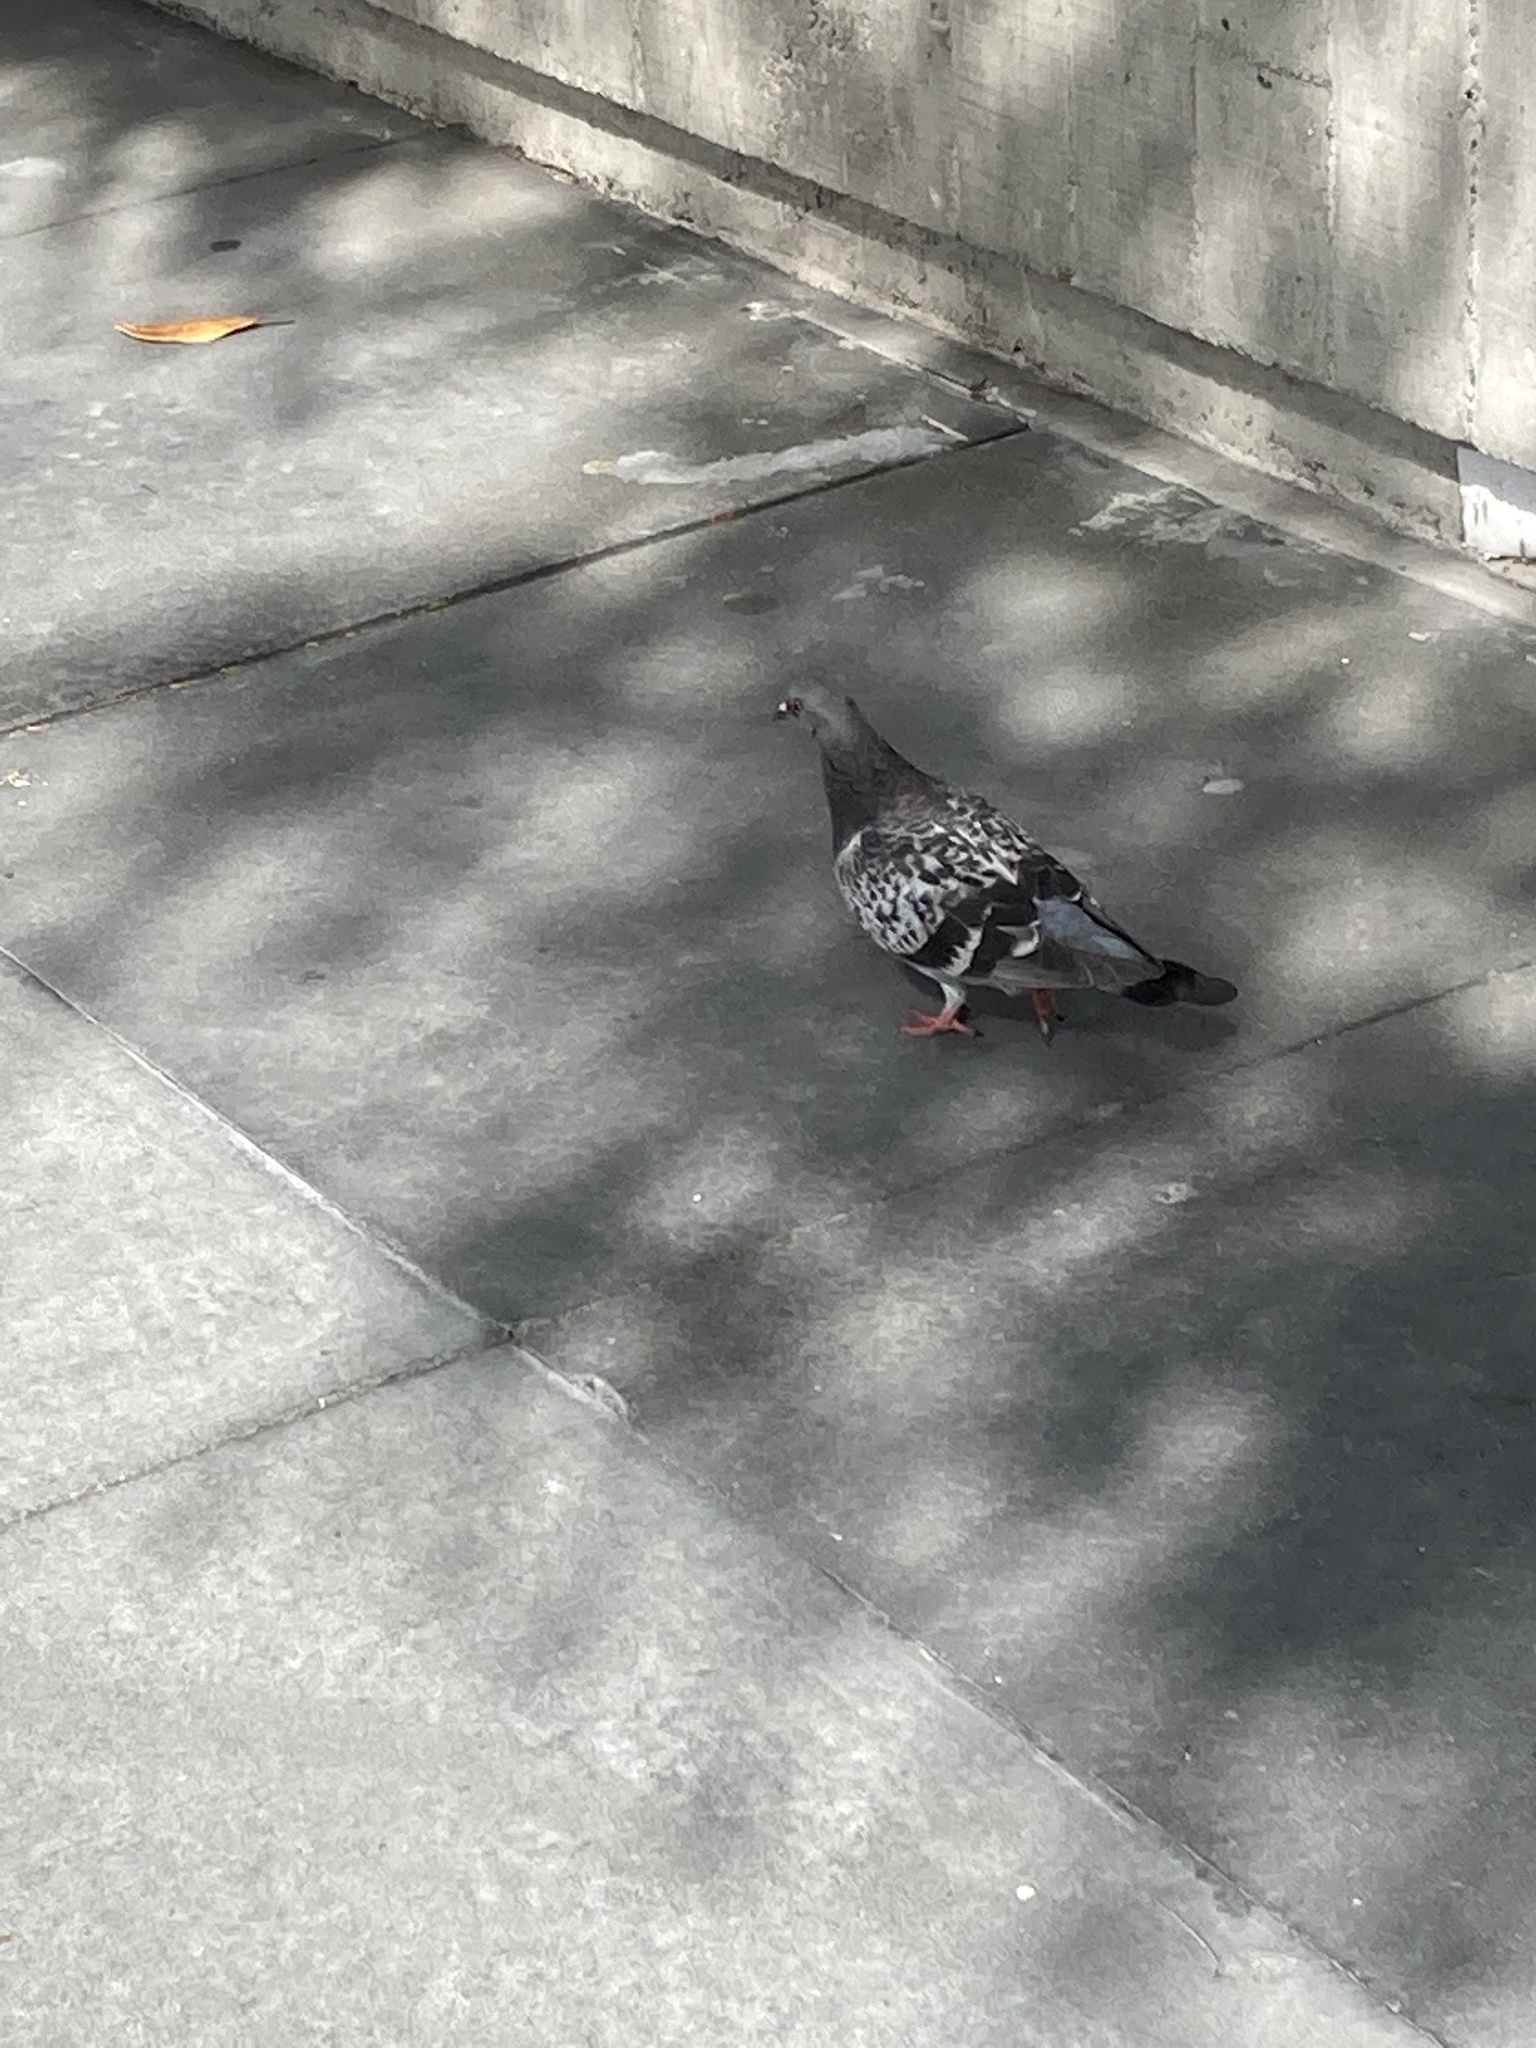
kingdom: Animalia
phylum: Chordata
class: Aves
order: Columbiformes
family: Columbidae
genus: Columba
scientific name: Columba livia
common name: Rock pigeon
